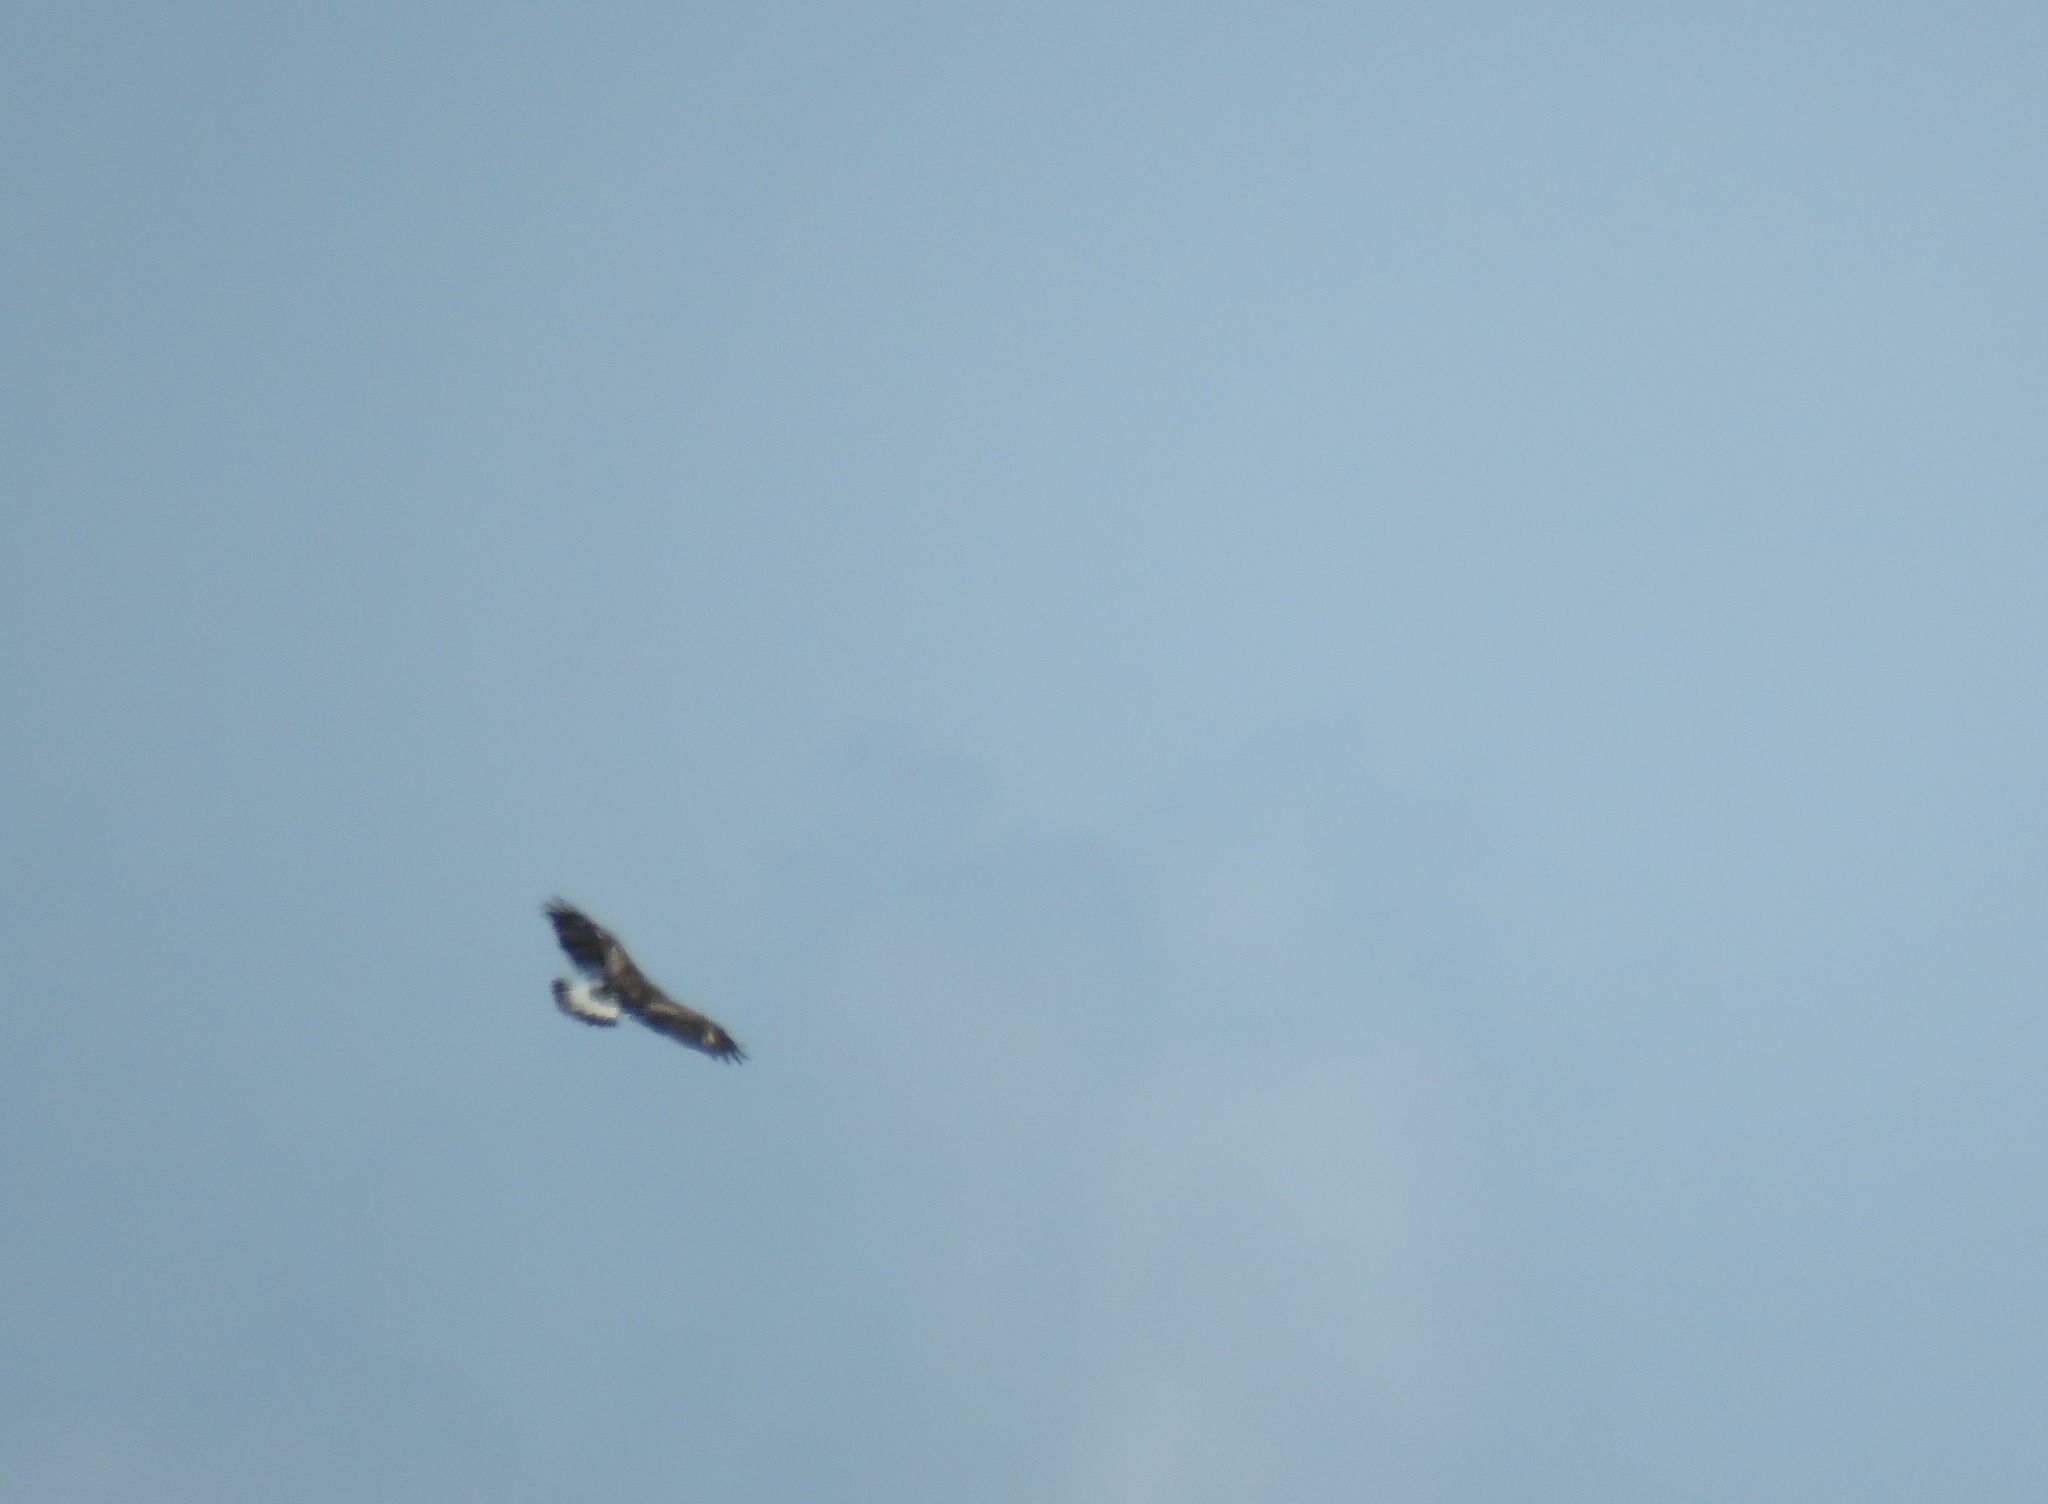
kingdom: Animalia
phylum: Chordata
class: Aves
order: Accipitriformes
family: Accipitridae
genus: Aquila
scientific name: Aquila chrysaetos
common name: Golden eagle
